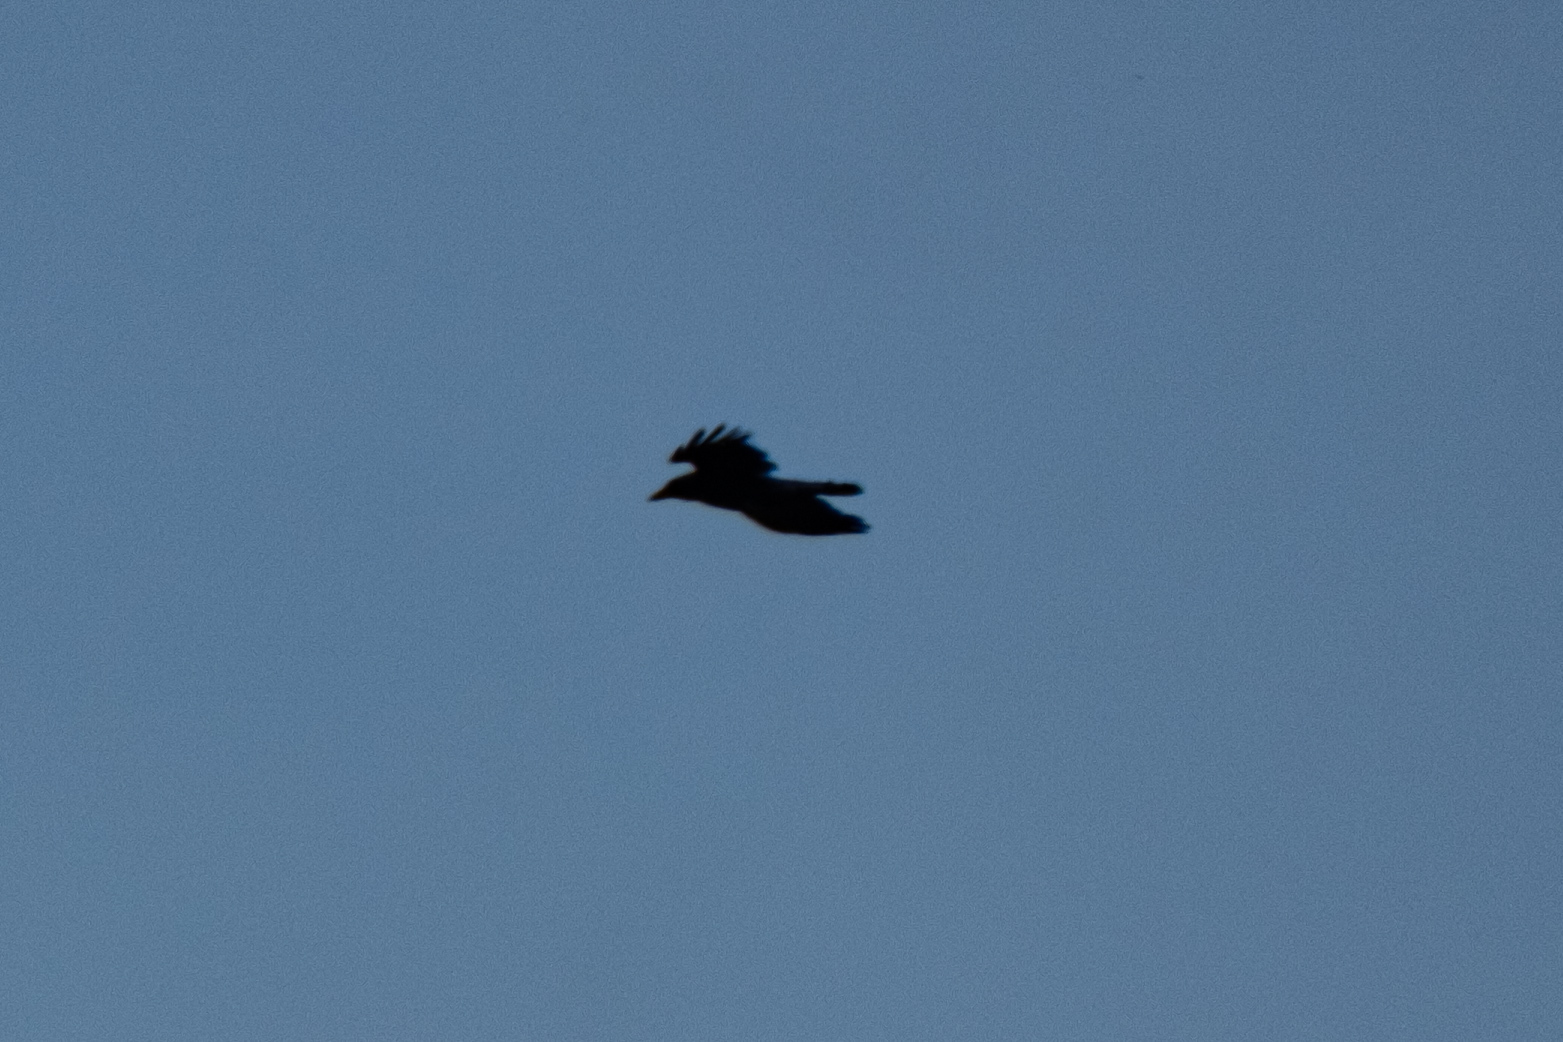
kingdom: Animalia
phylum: Chordata
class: Aves
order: Passeriformes
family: Corvidae
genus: Corvus
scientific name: Corvus corone
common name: Carrion crow
